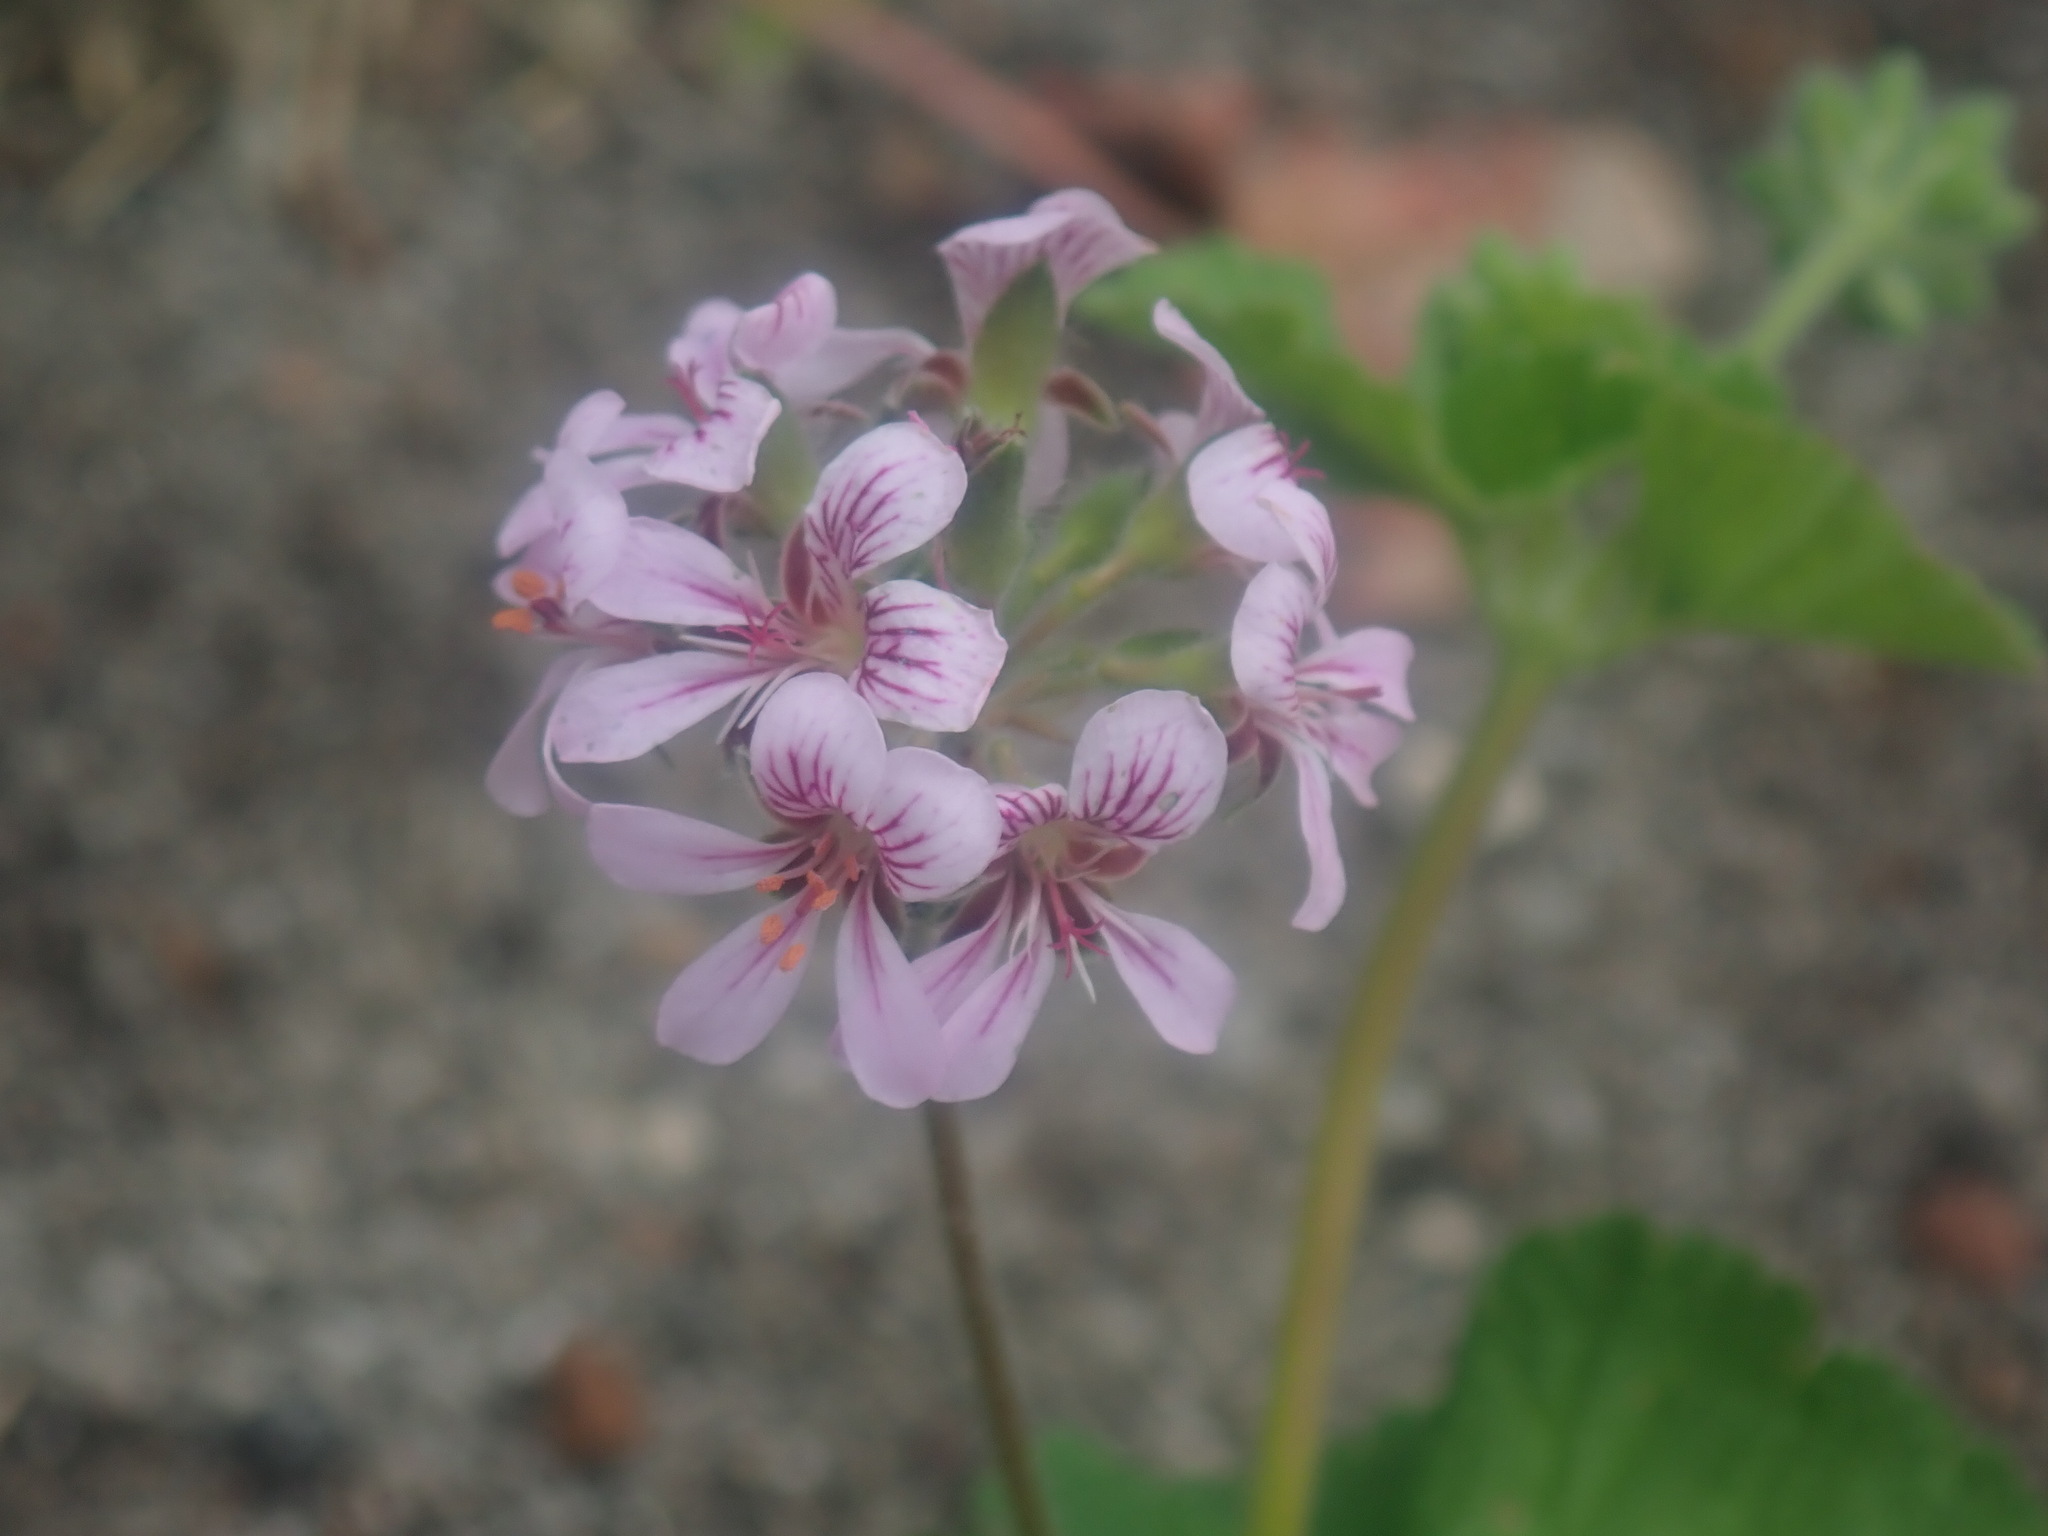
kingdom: Plantae
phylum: Tracheophyta
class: Magnoliopsida
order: Geraniales
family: Geraniaceae
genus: Pelargonium
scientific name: Pelargonium australe
